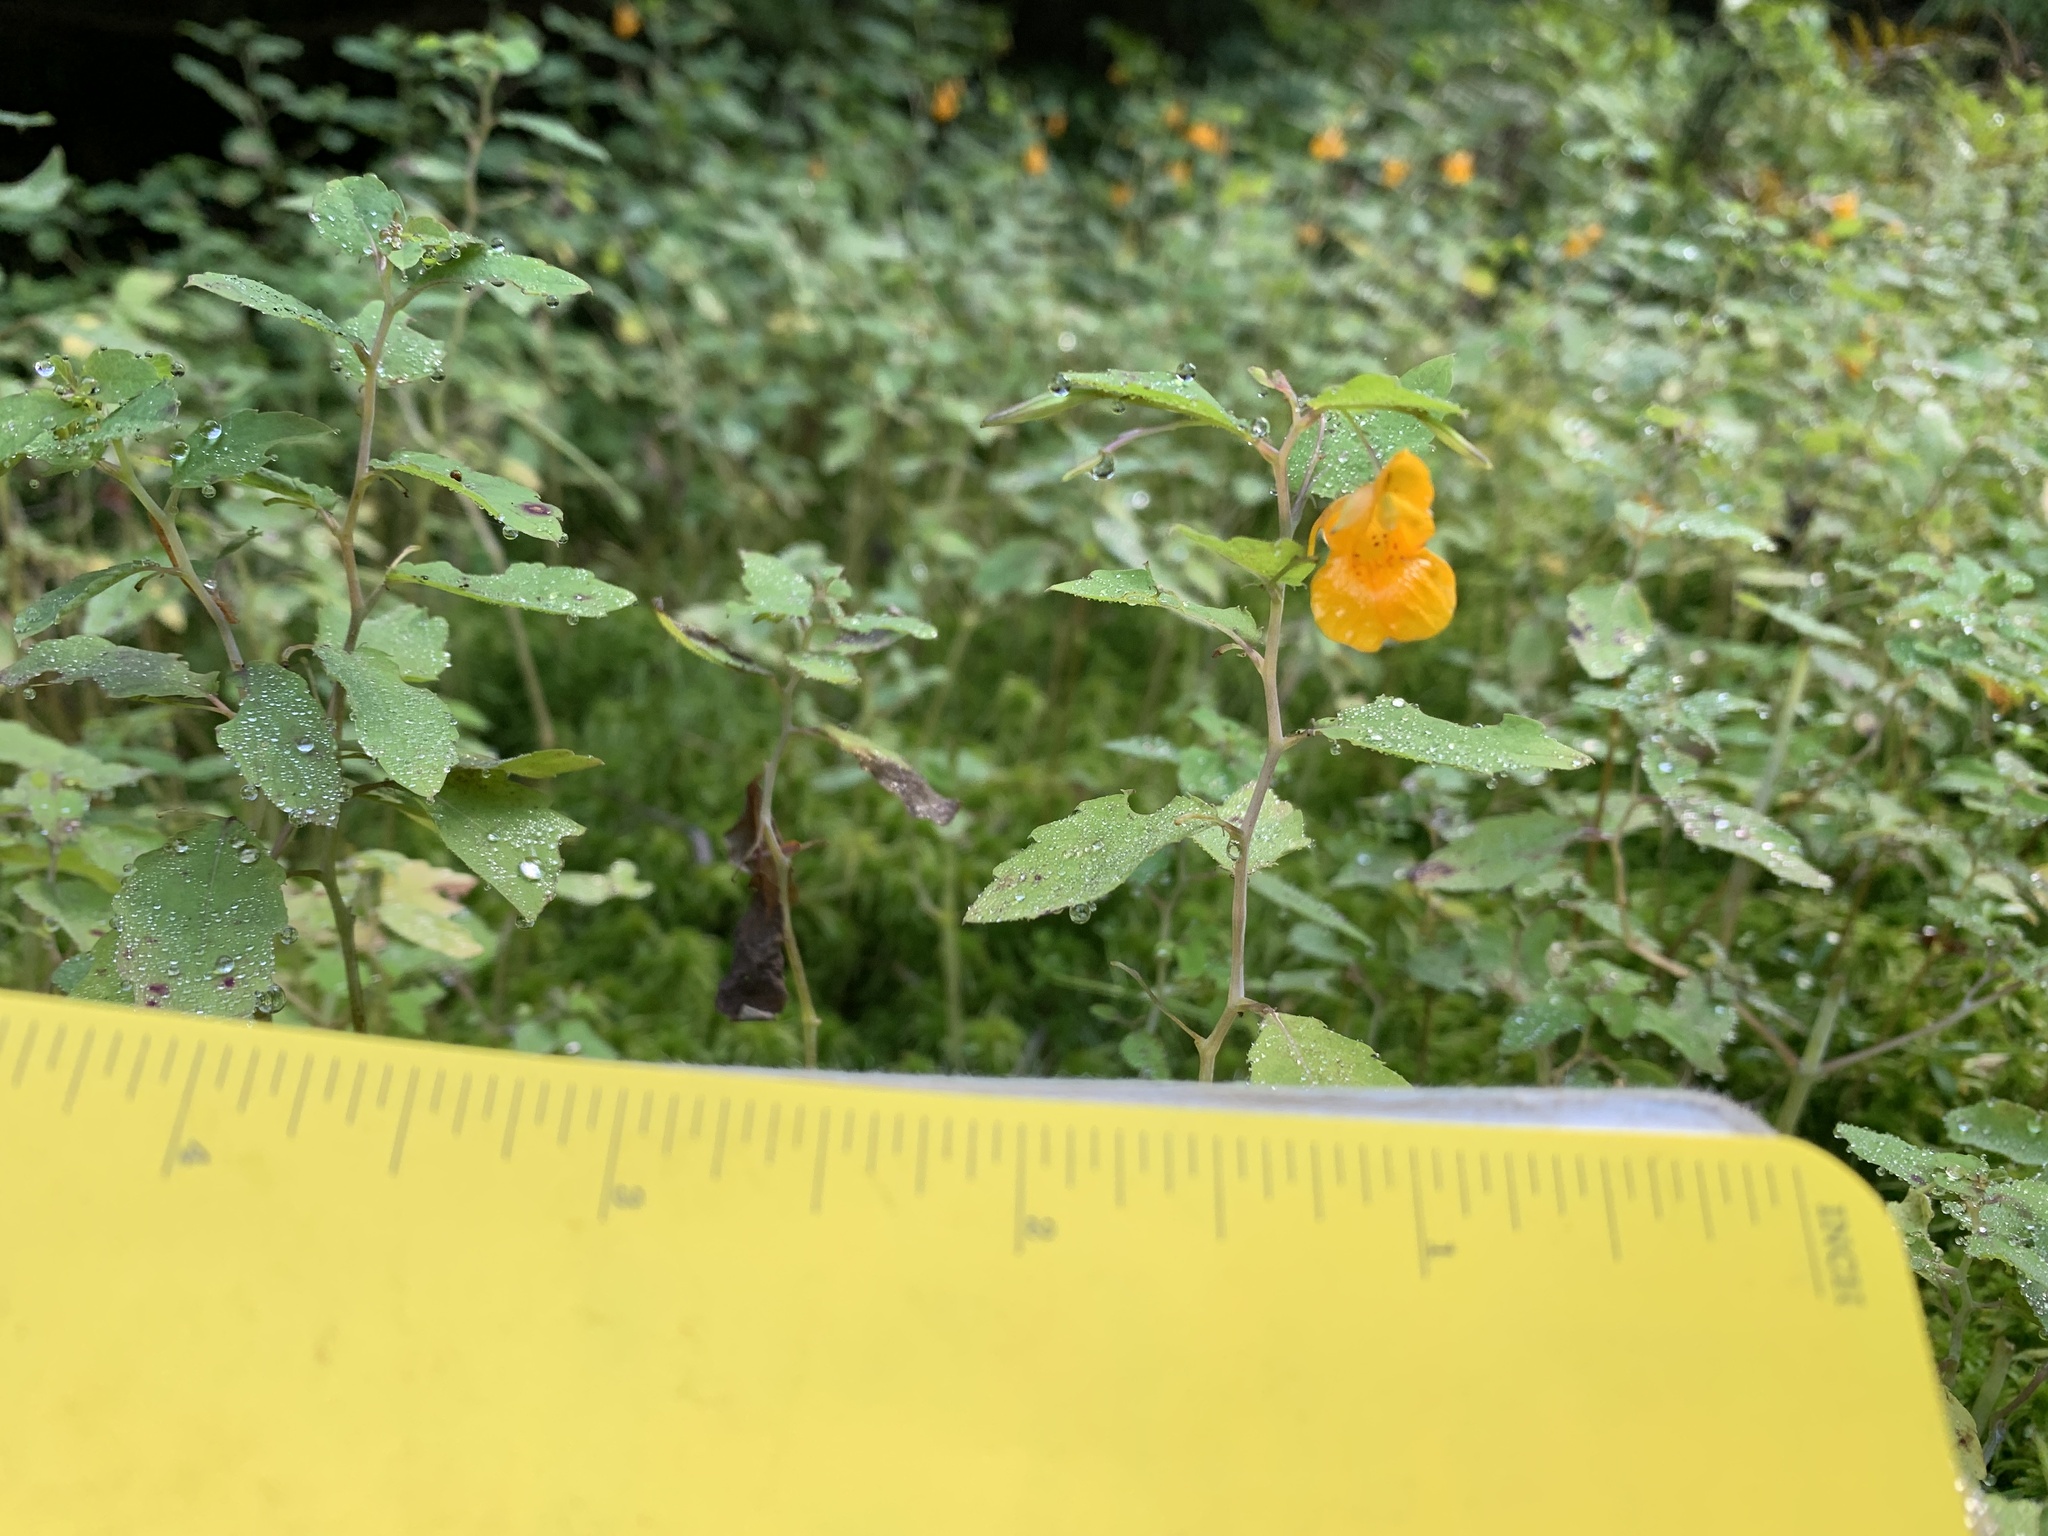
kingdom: Plantae
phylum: Tracheophyta
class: Magnoliopsida
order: Ericales
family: Balsaminaceae
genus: Impatiens
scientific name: Impatiens capensis
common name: Orange balsam
